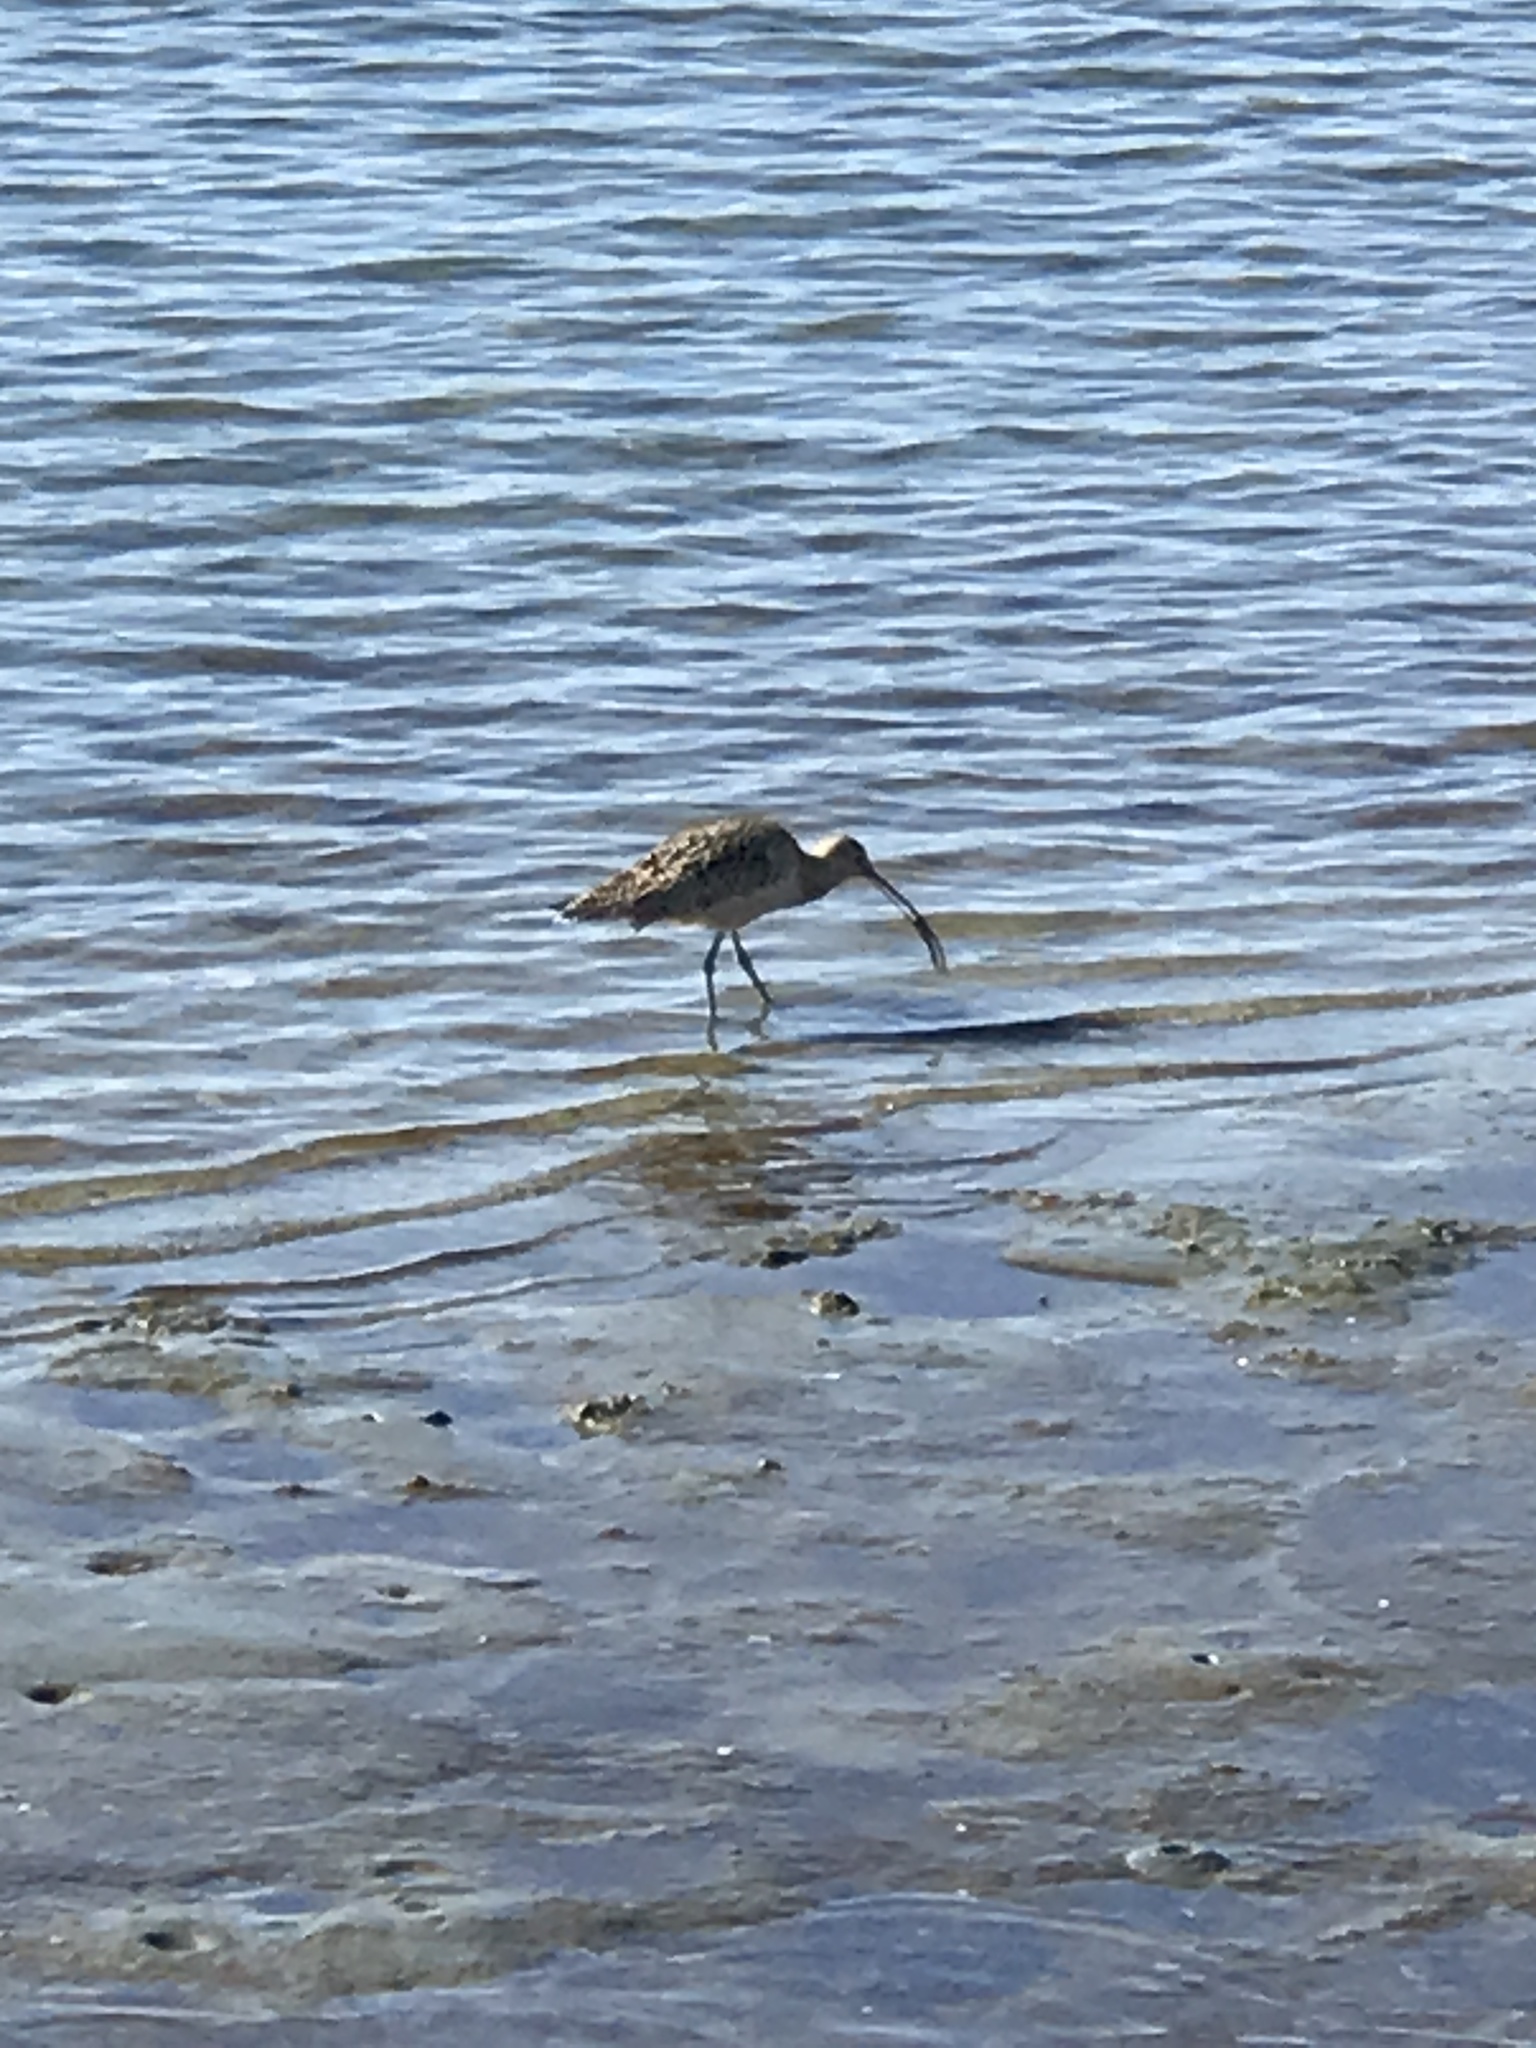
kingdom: Animalia
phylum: Chordata
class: Aves
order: Charadriiformes
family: Scolopacidae
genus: Numenius
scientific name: Numenius americanus
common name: Long-billed curlew
